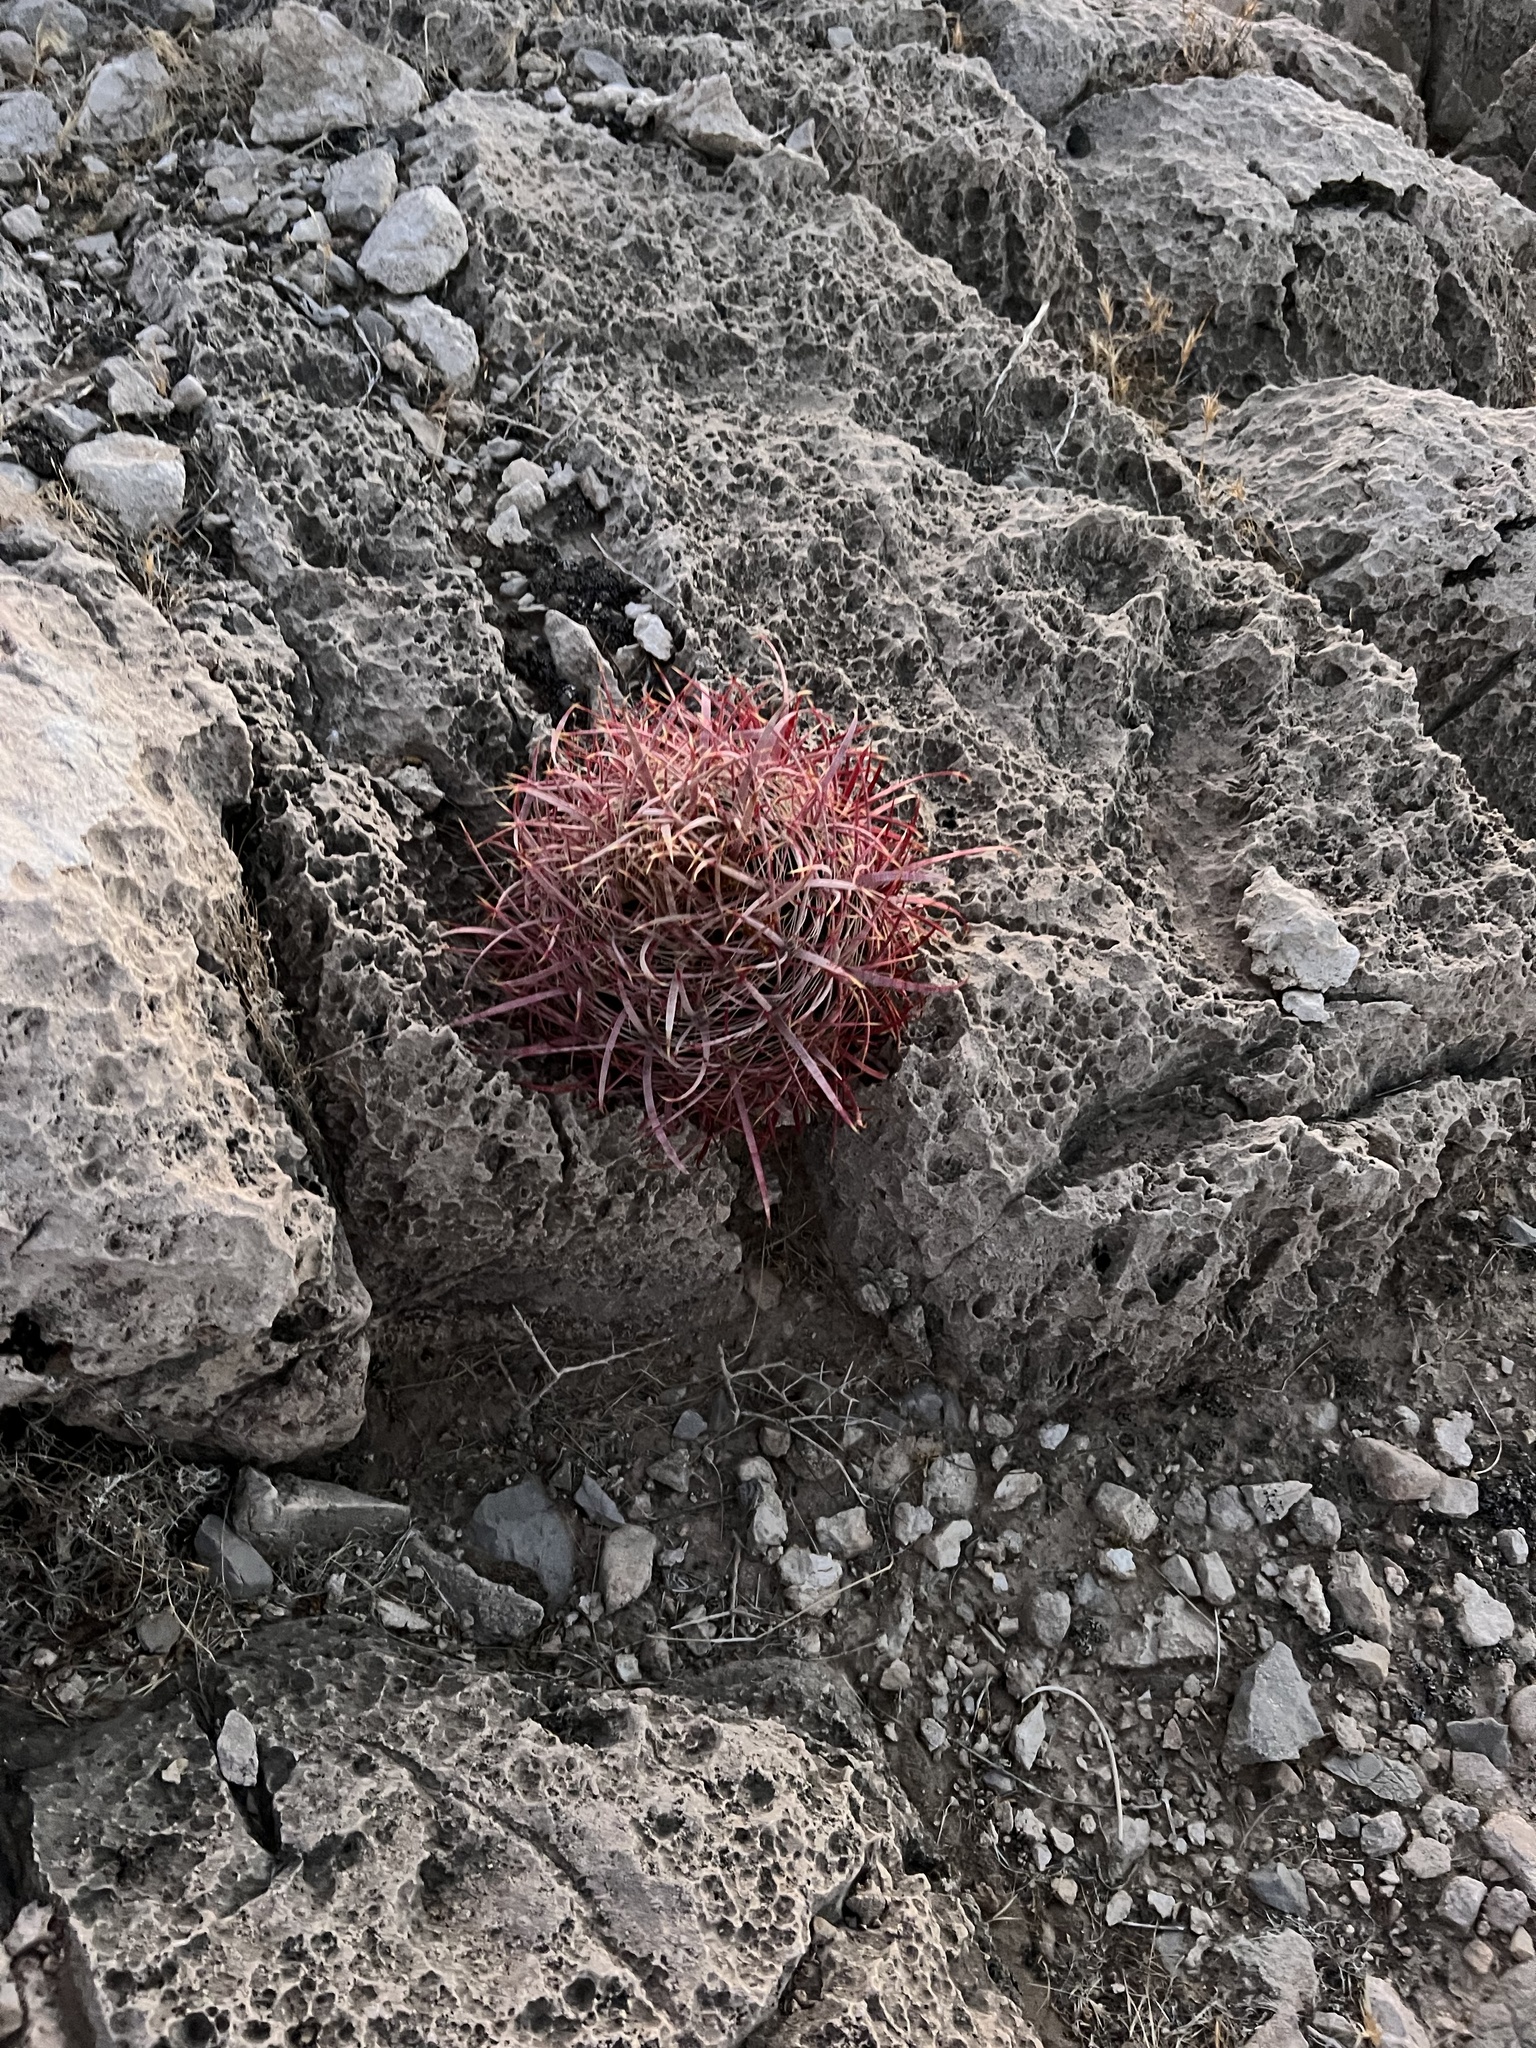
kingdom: Plantae
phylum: Tracheophyta
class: Magnoliopsida
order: Caryophyllales
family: Cactaceae
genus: Ferocactus
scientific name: Ferocactus cylindraceus
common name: California barrel cactus
